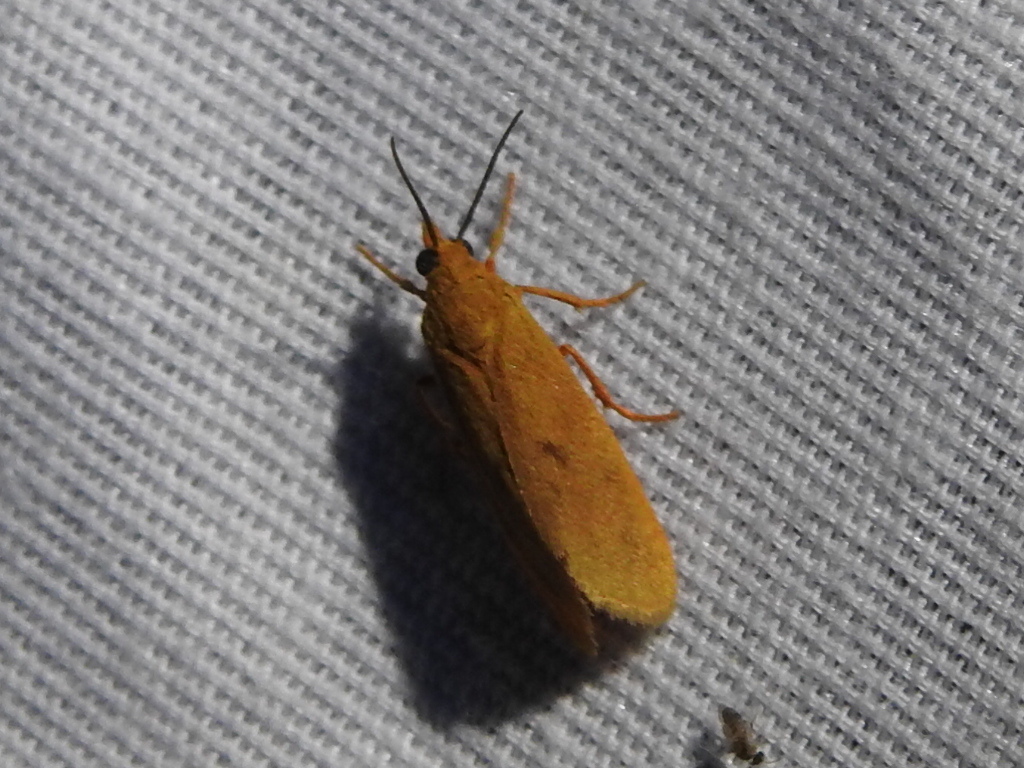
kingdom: Animalia
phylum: Arthropoda
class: Insecta
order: Lepidoptera
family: Erebidae
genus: Virbia
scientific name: Virbia aurantiaca
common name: Orange virbia moth
